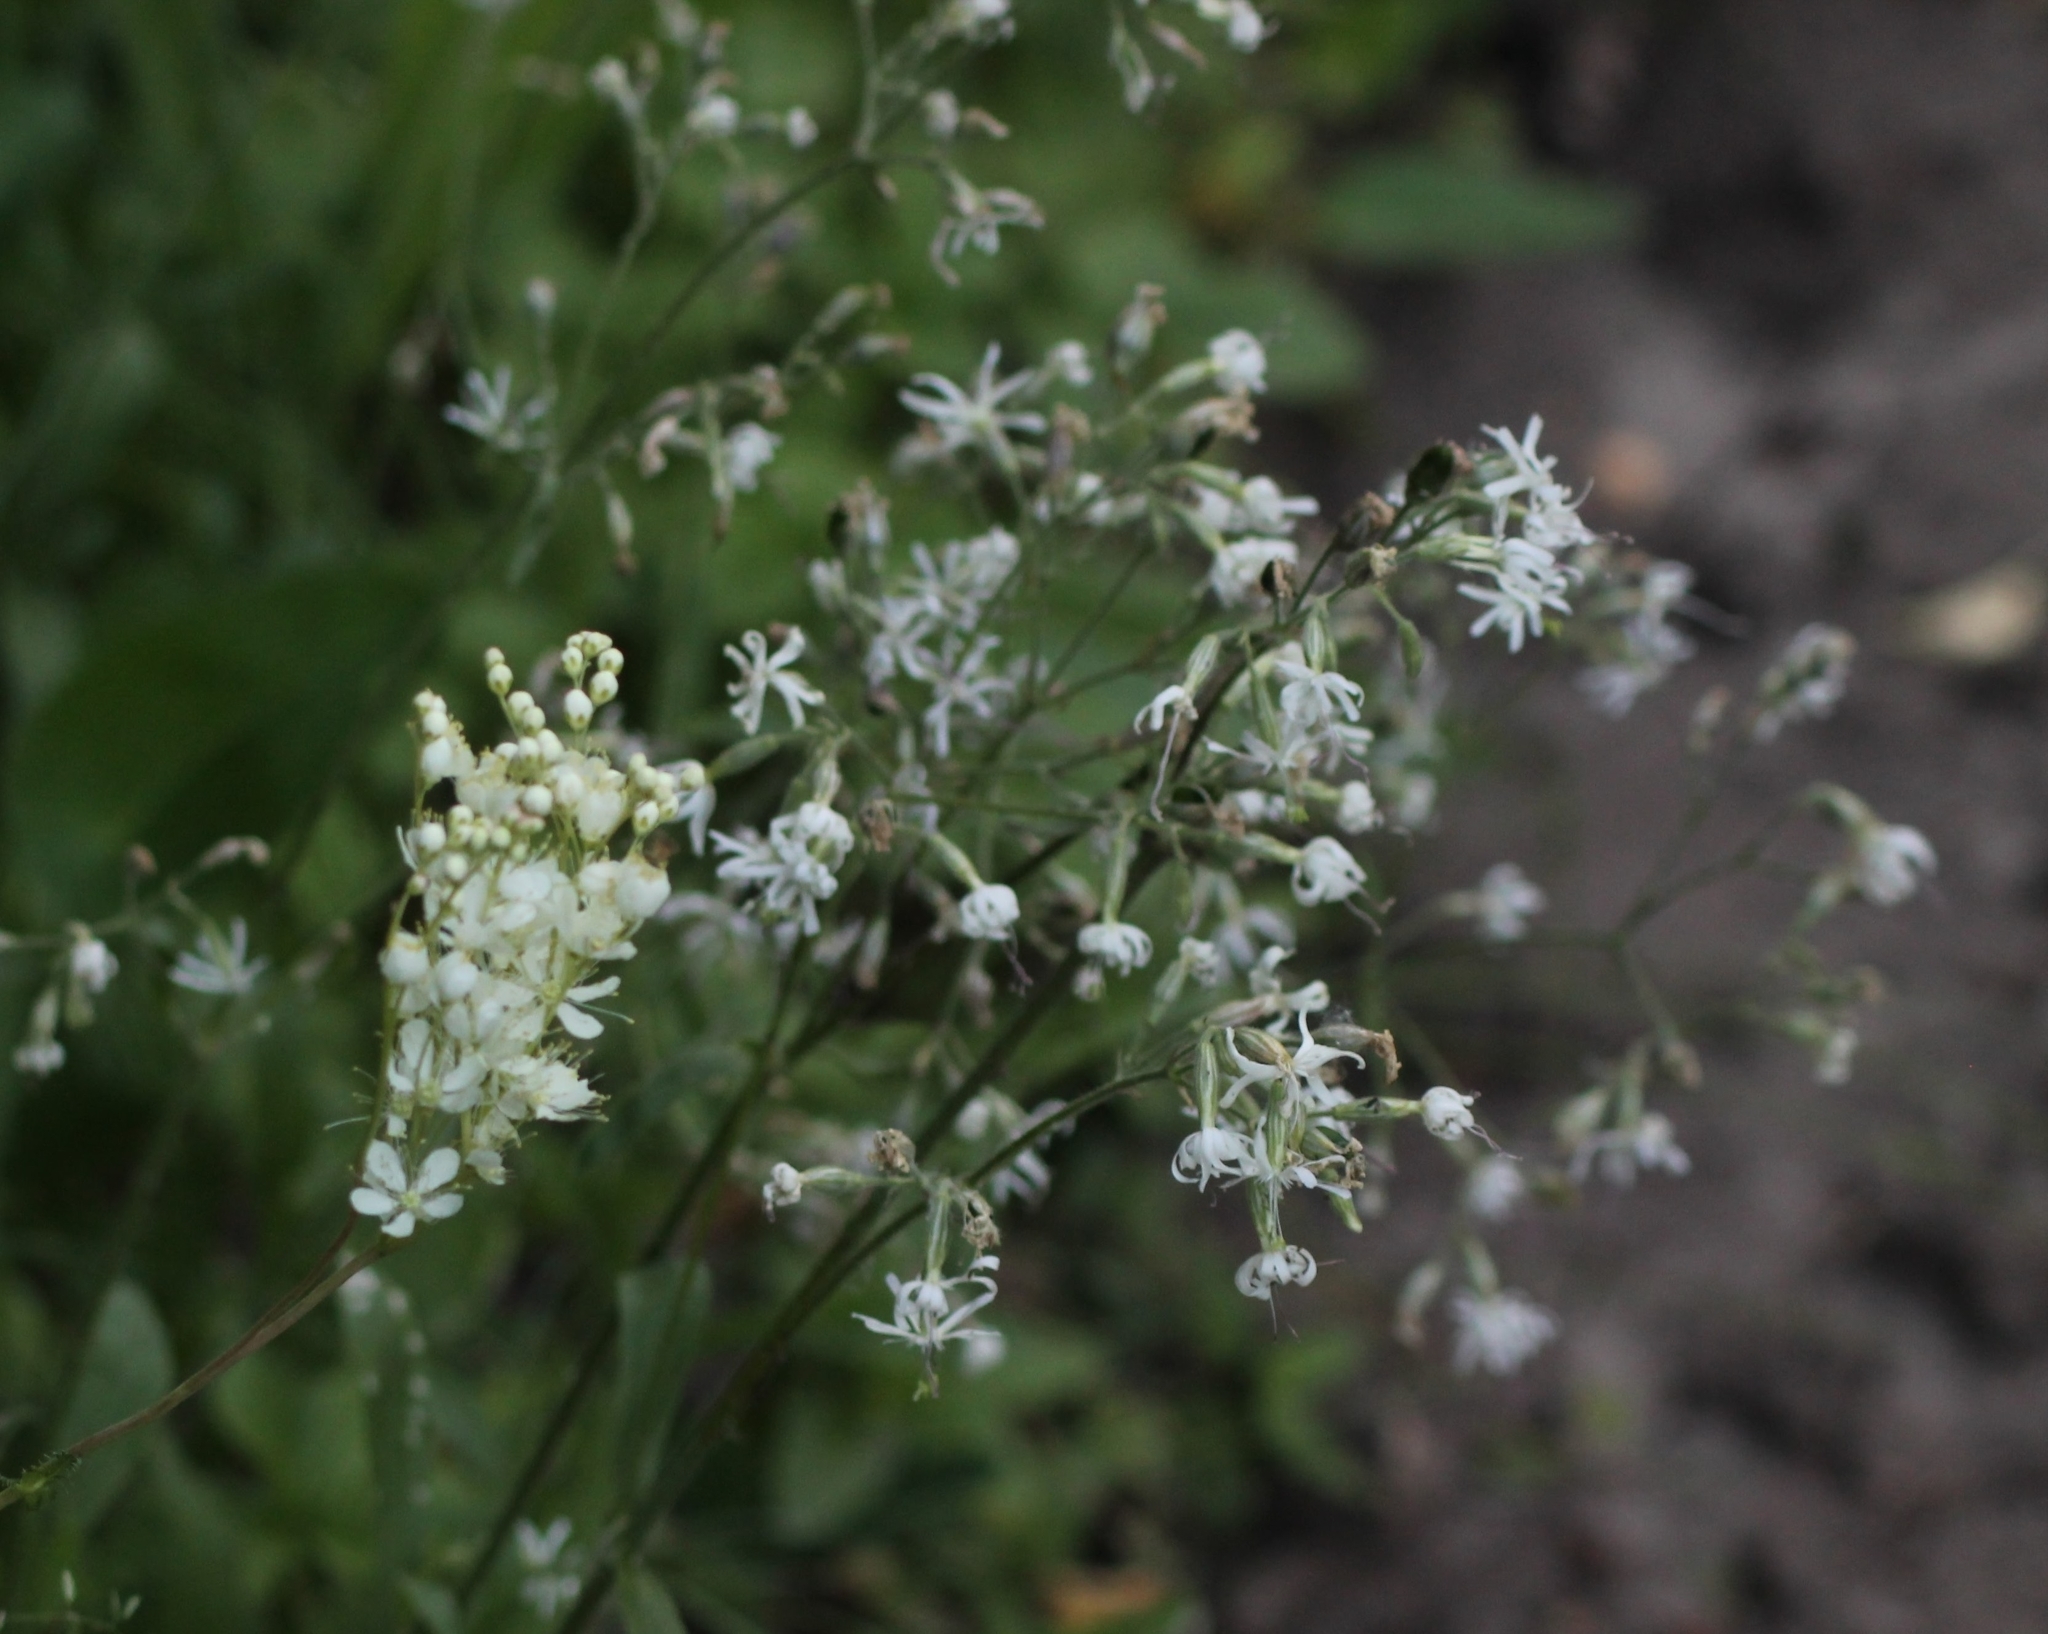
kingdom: Plantae
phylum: Tracheophyta
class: Magnoliopsida
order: Caryophyllales
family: Caryophyllaceae
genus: Silene
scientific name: Silene nutans
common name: Nottingham catchfly
